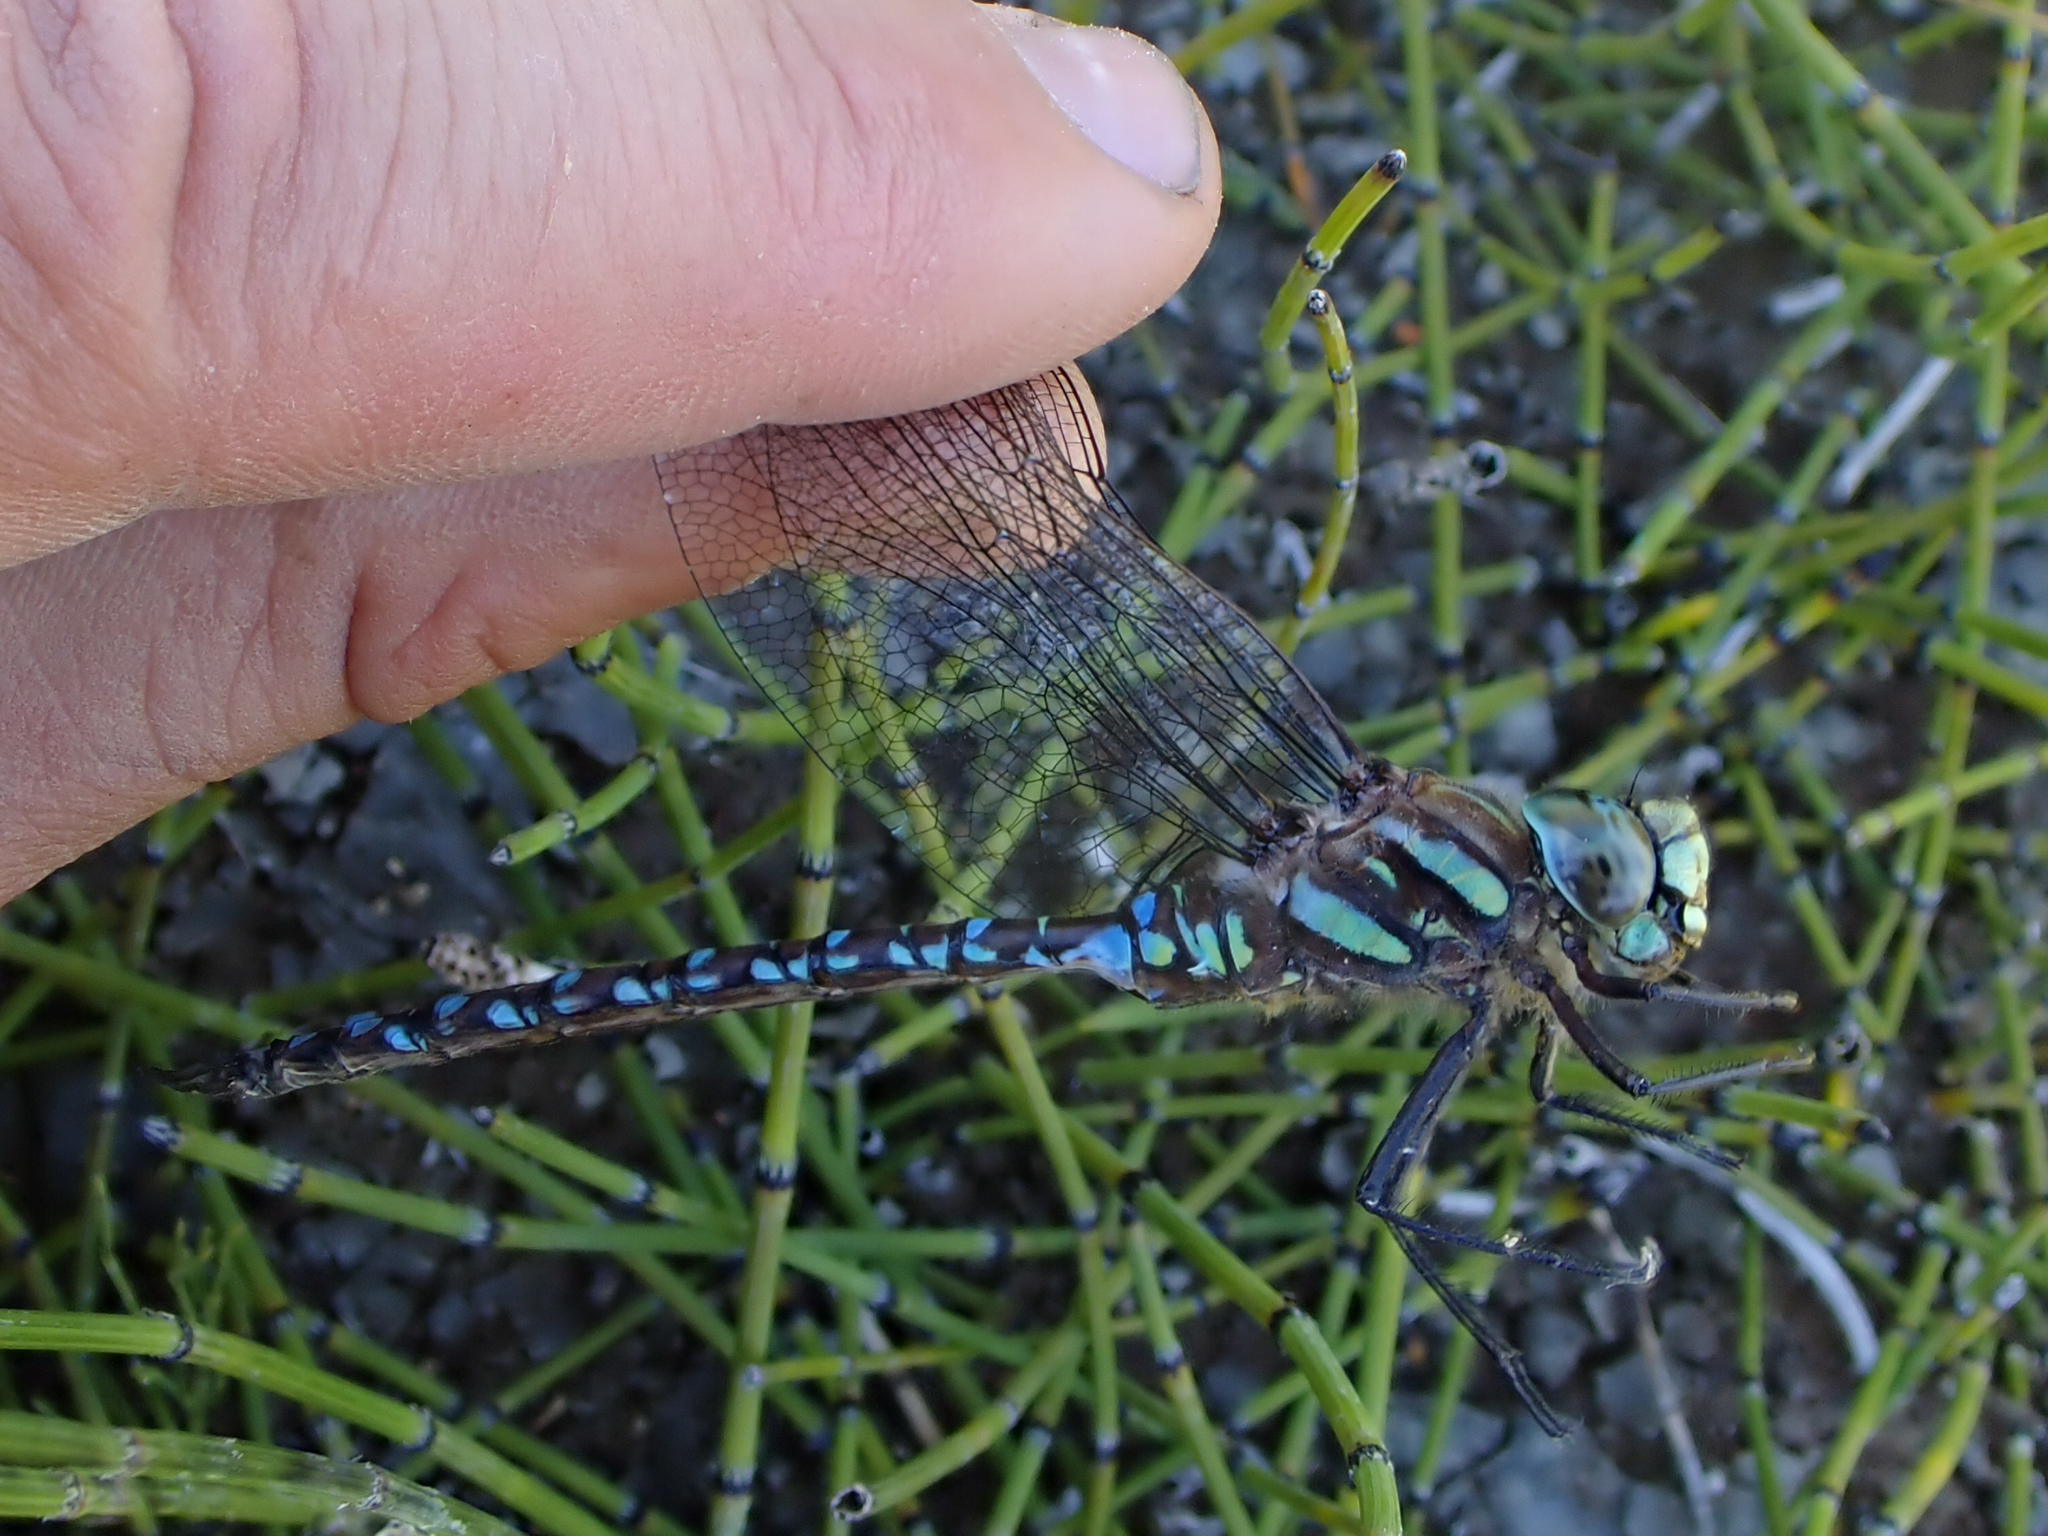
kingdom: Animalia
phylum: Arthropoda
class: Insecta
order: Odonata
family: Aeshnidae
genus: Aeshna
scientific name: Aeshna juncea
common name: Moorland hawker
